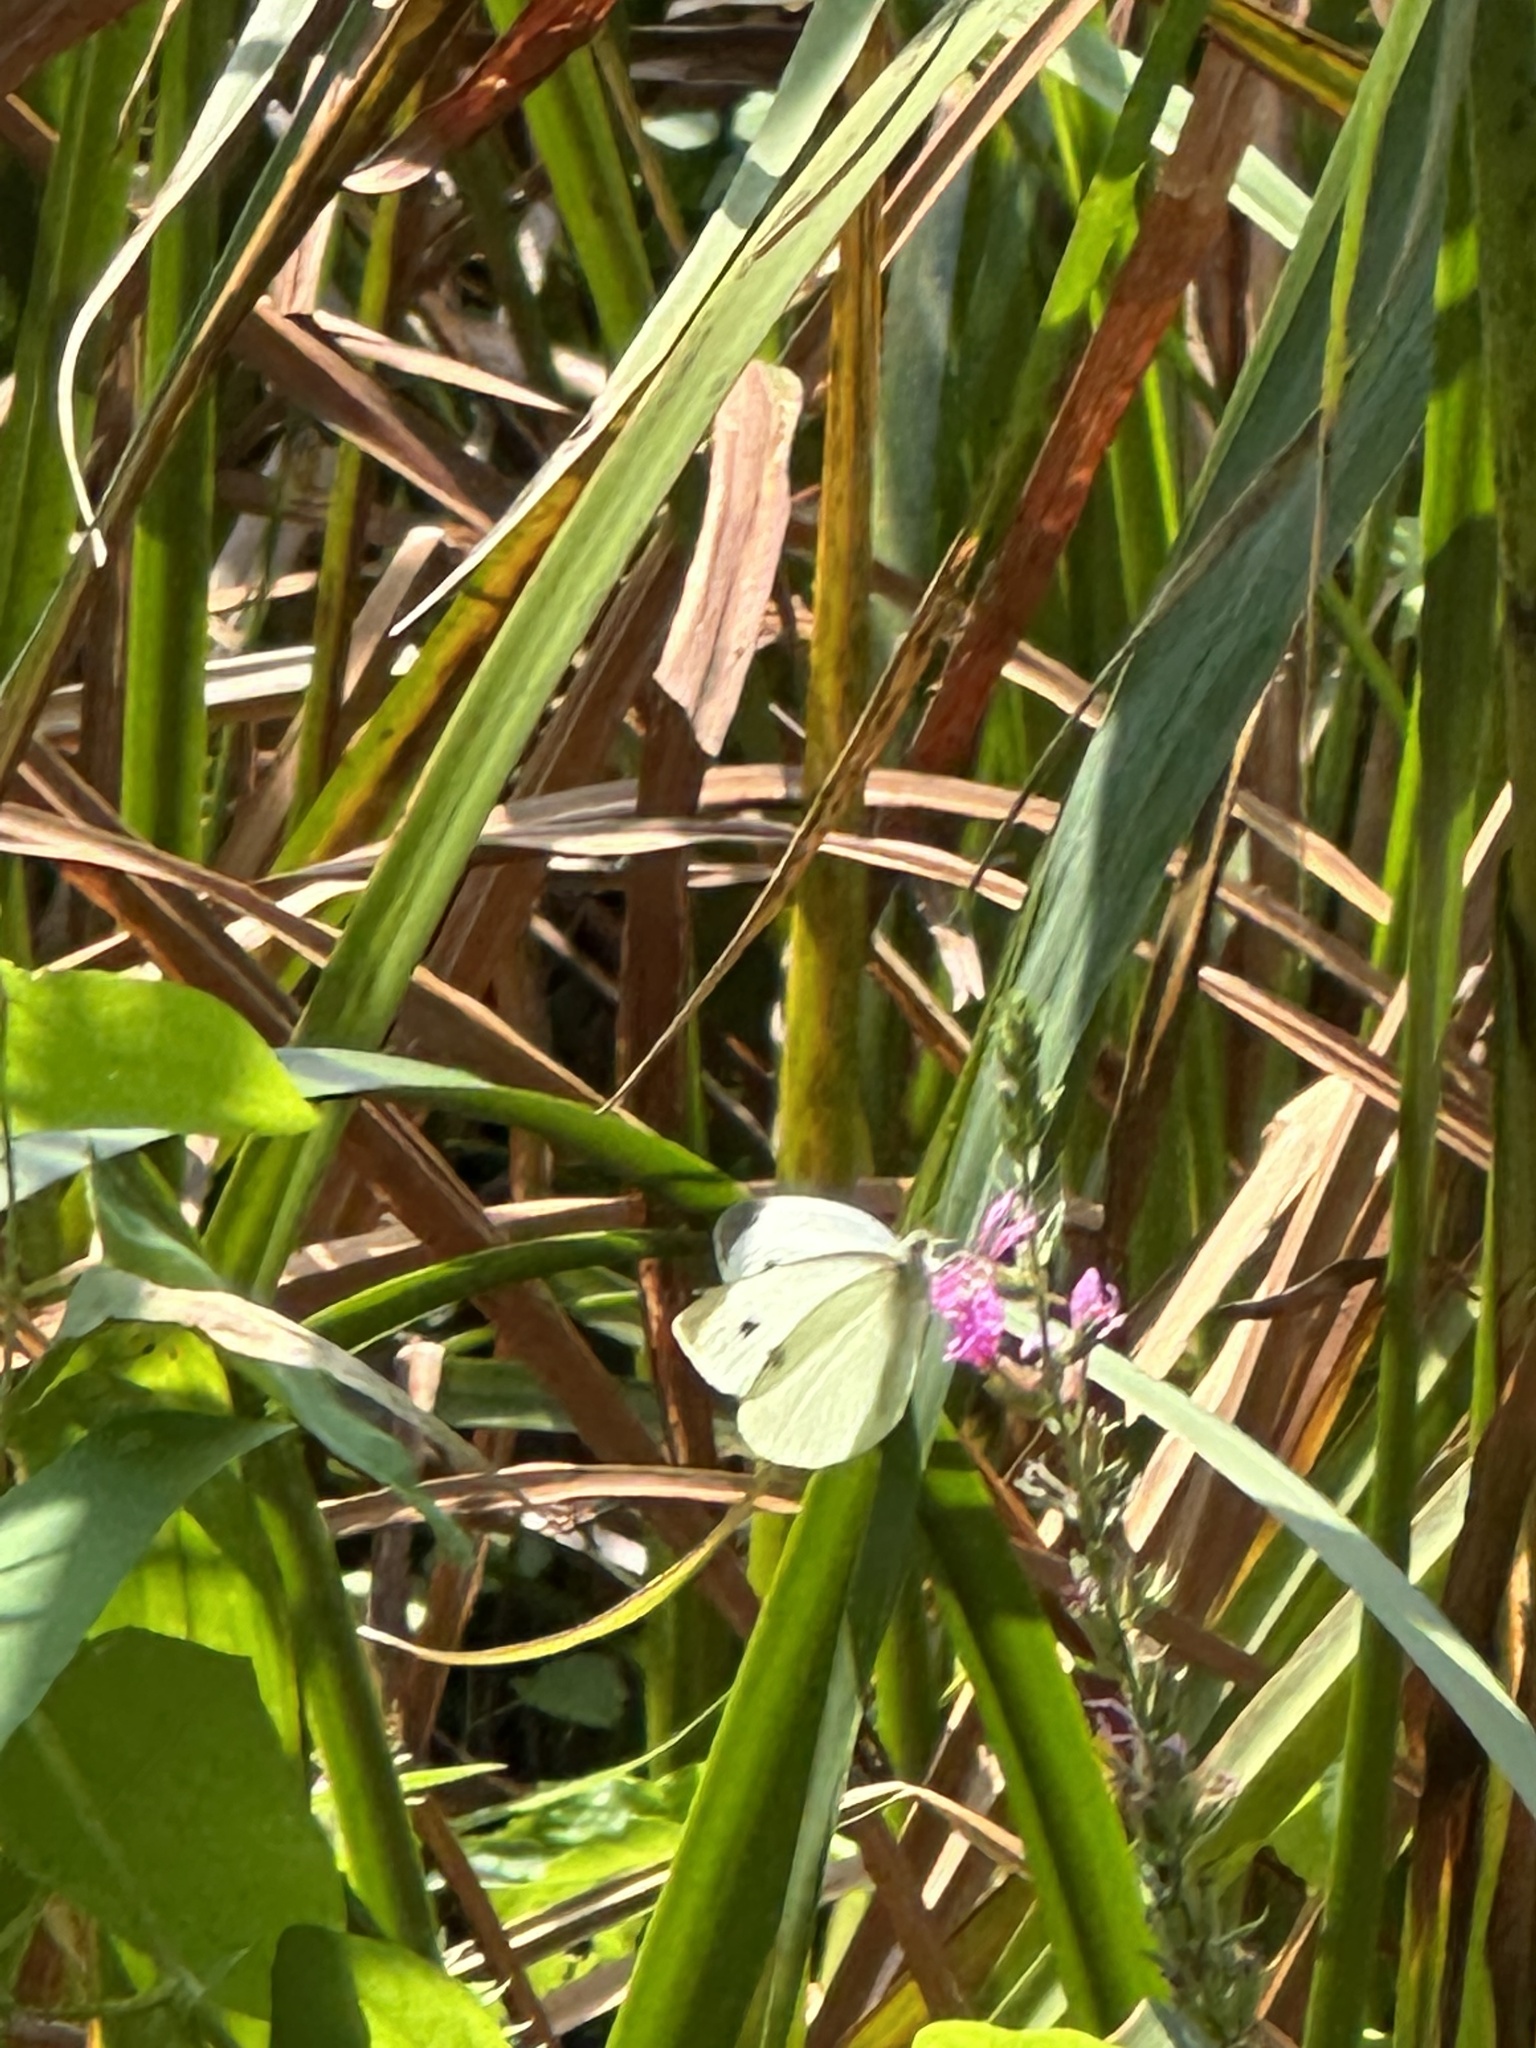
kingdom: Animalia
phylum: Arthropoda
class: Insecta
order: Lepidoptera
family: Pieridae
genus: Pieris
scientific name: Pieris rapae
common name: Small white
